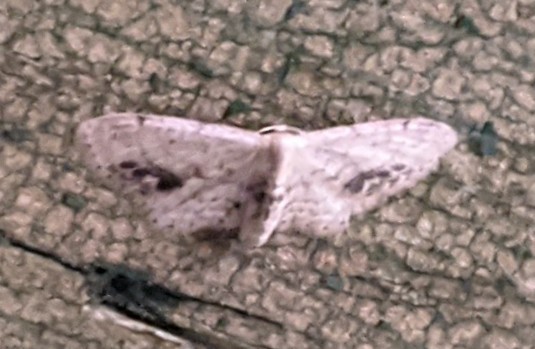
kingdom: Animalia
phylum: Arthropoda
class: Insecta
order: Lepidoptera
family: Geometridae
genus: Idaea
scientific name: Idaea dimidiata
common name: Single-dotted wave
